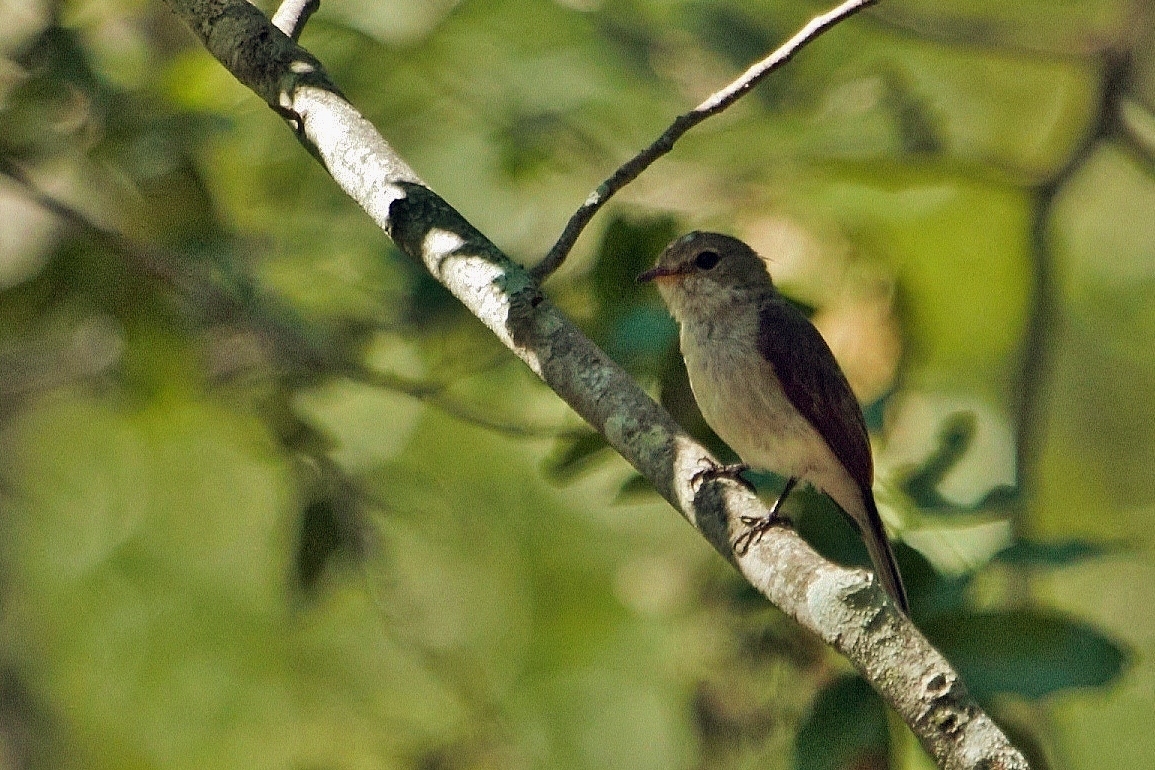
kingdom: Animalia
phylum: Chordata
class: Aves
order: Passeriformes
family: Muscicapidae
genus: Muscicapa
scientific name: Muscicapa adusta
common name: African dusky flycatcher
